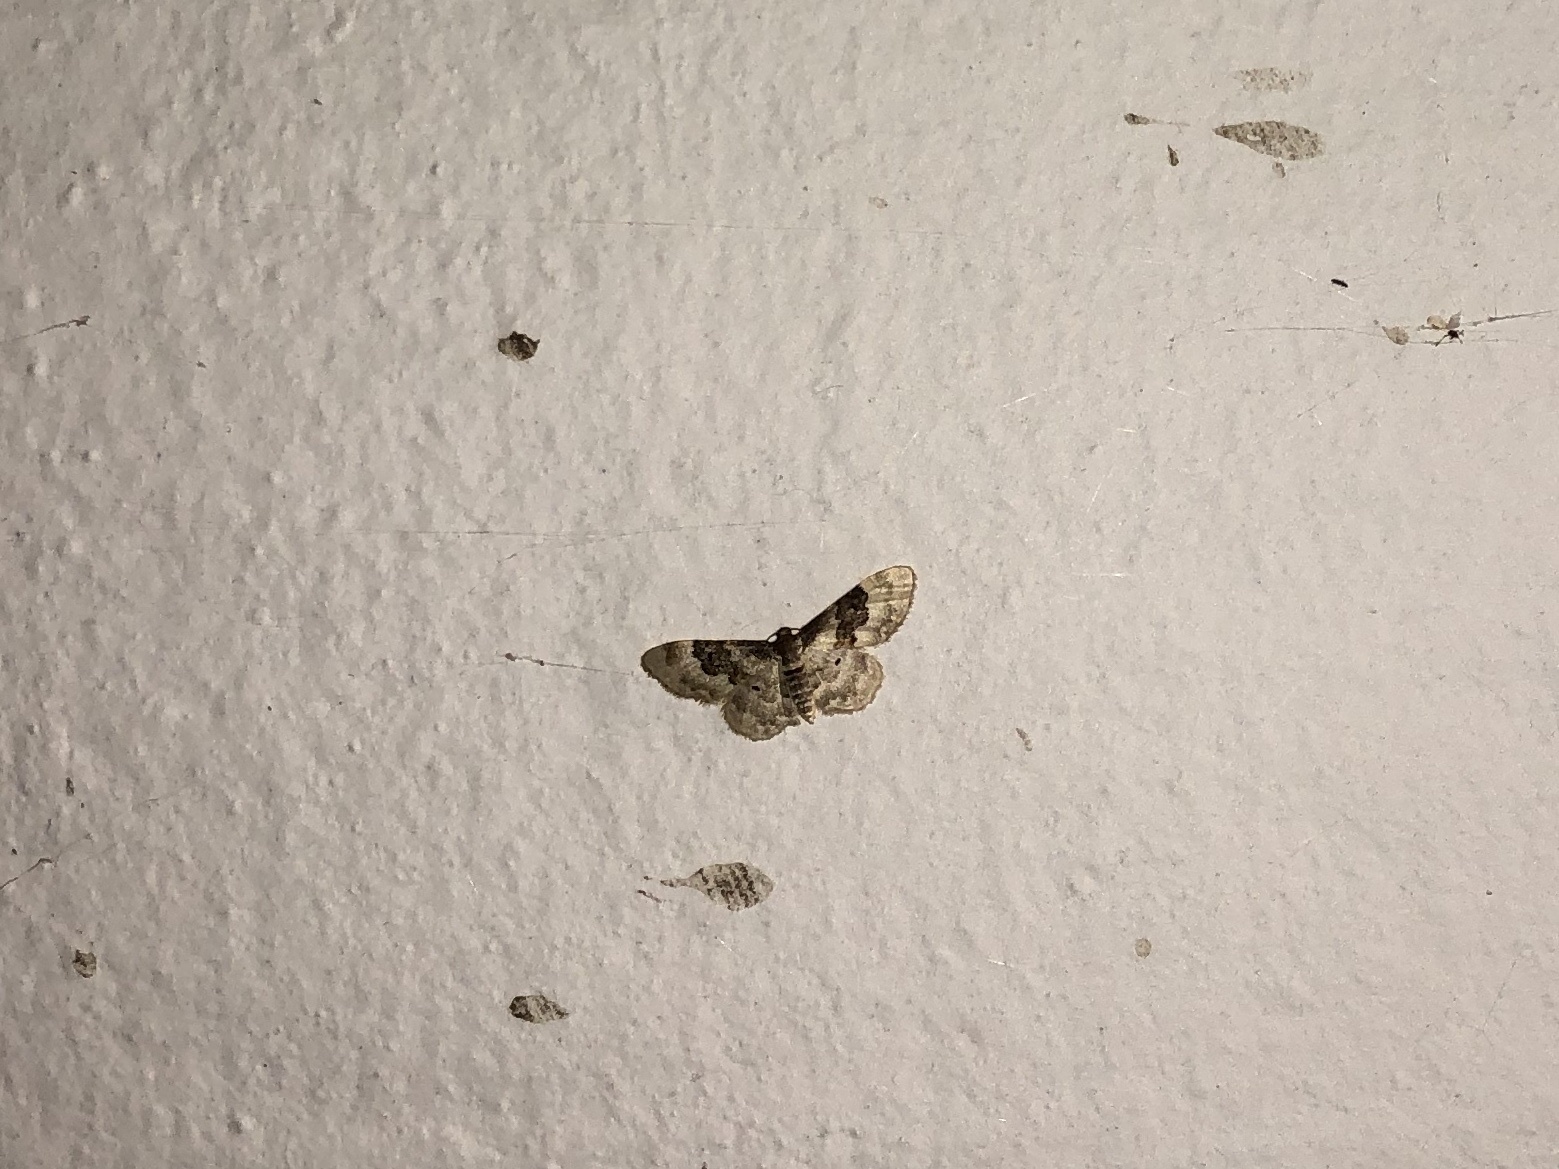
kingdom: Animalia
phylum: Arthropoda
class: Insecta
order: Lepidoptera
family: Geometridae
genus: Idaea
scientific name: Idaea rusticata
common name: Least carpet
